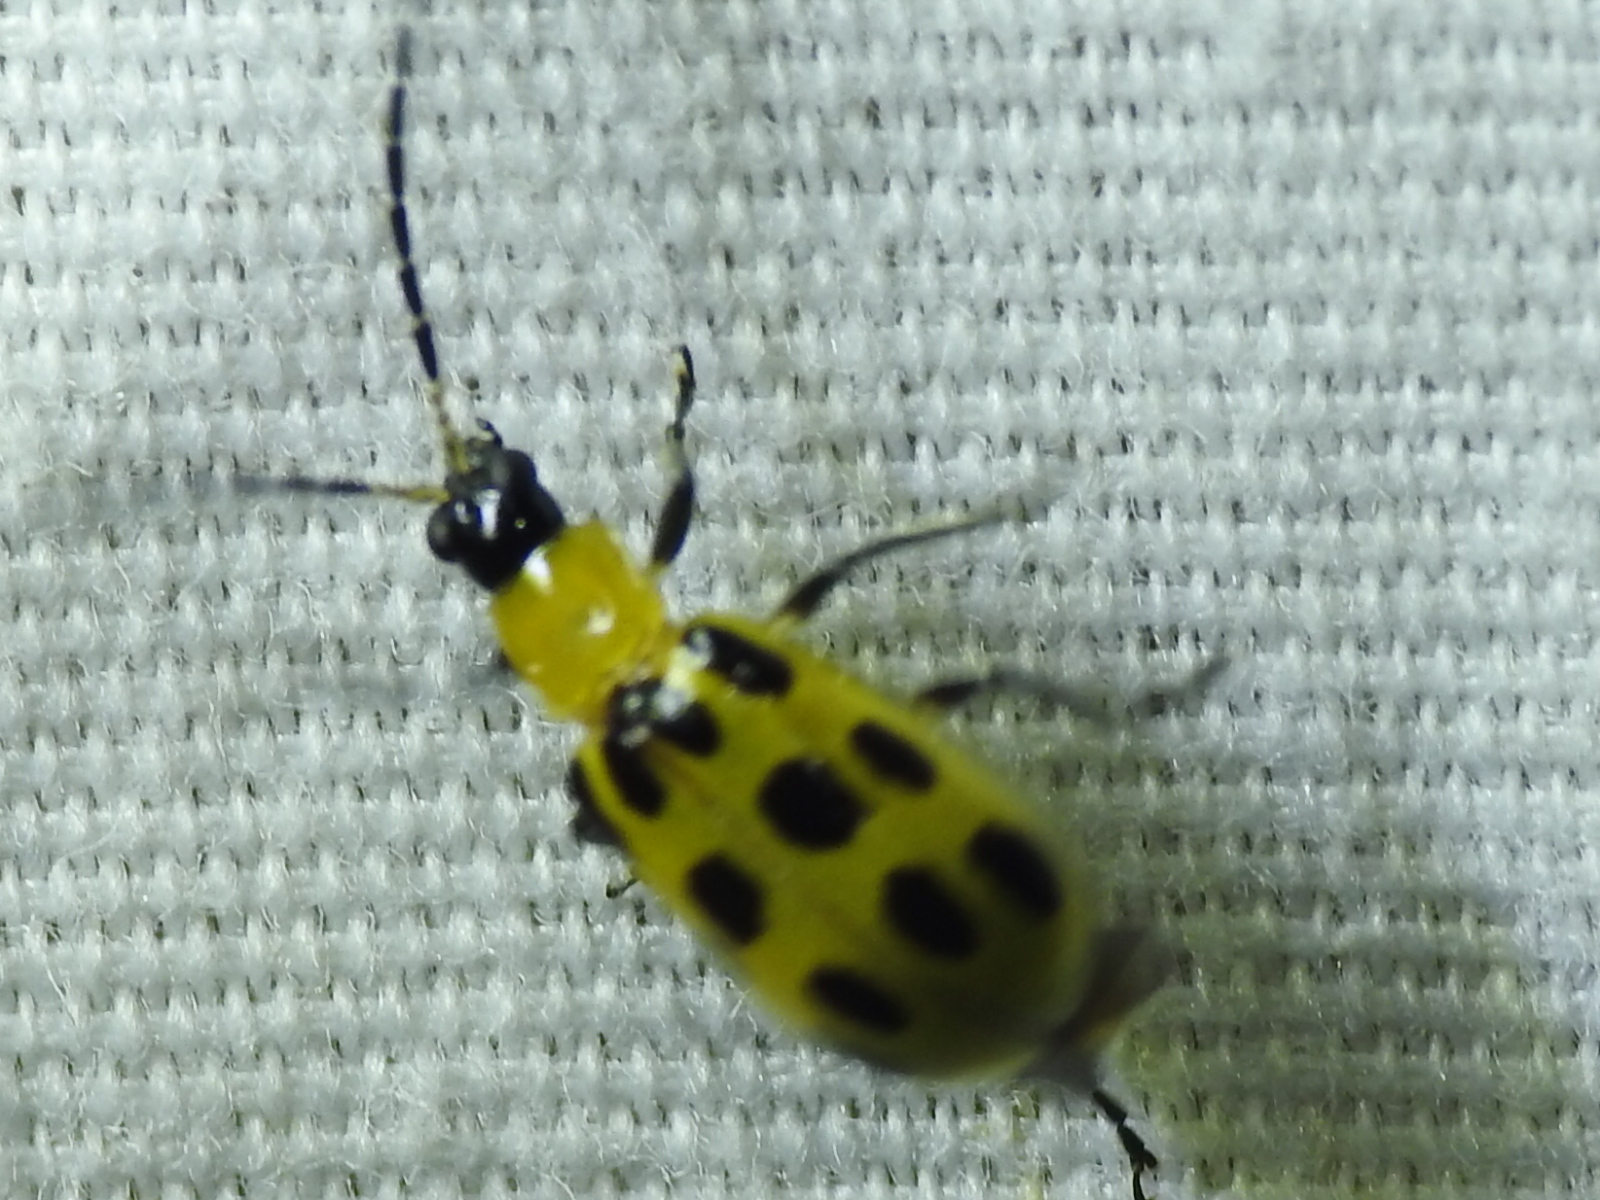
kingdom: Animalia
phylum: Arthropoda
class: Insecta
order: Coleoptera
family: Chrysomelidae
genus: Diabrotica
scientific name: Diabrotica undecimpunctata
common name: Spotted cucumber beetle
